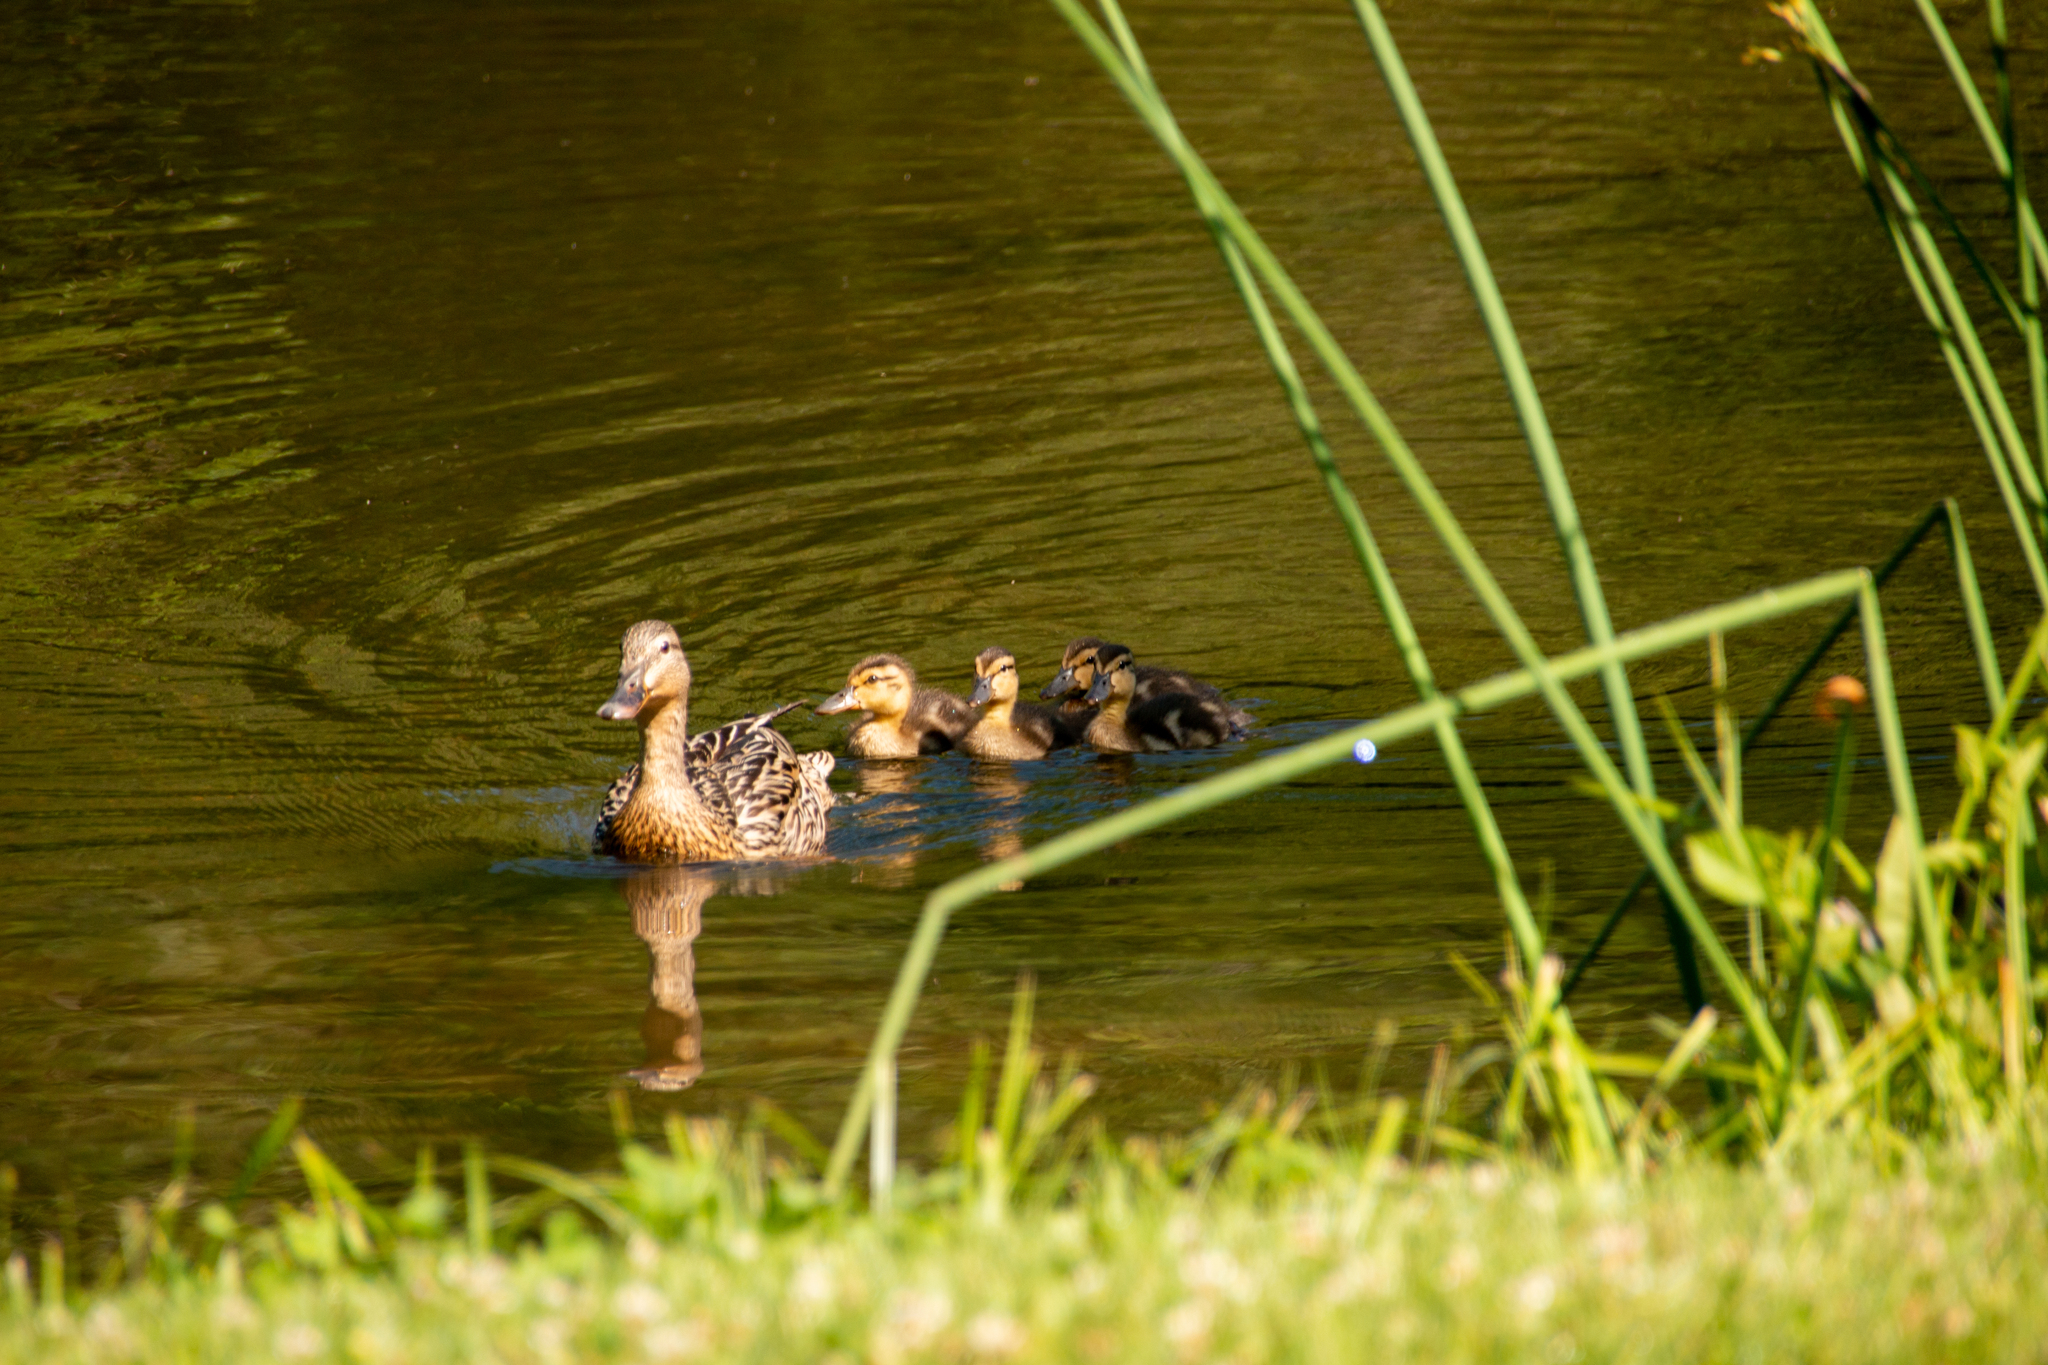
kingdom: Animalia
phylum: Chordata
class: Aves
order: Anseriformes
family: Anatidae
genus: Anas
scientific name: Anas platyrhynchos
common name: Mallard
